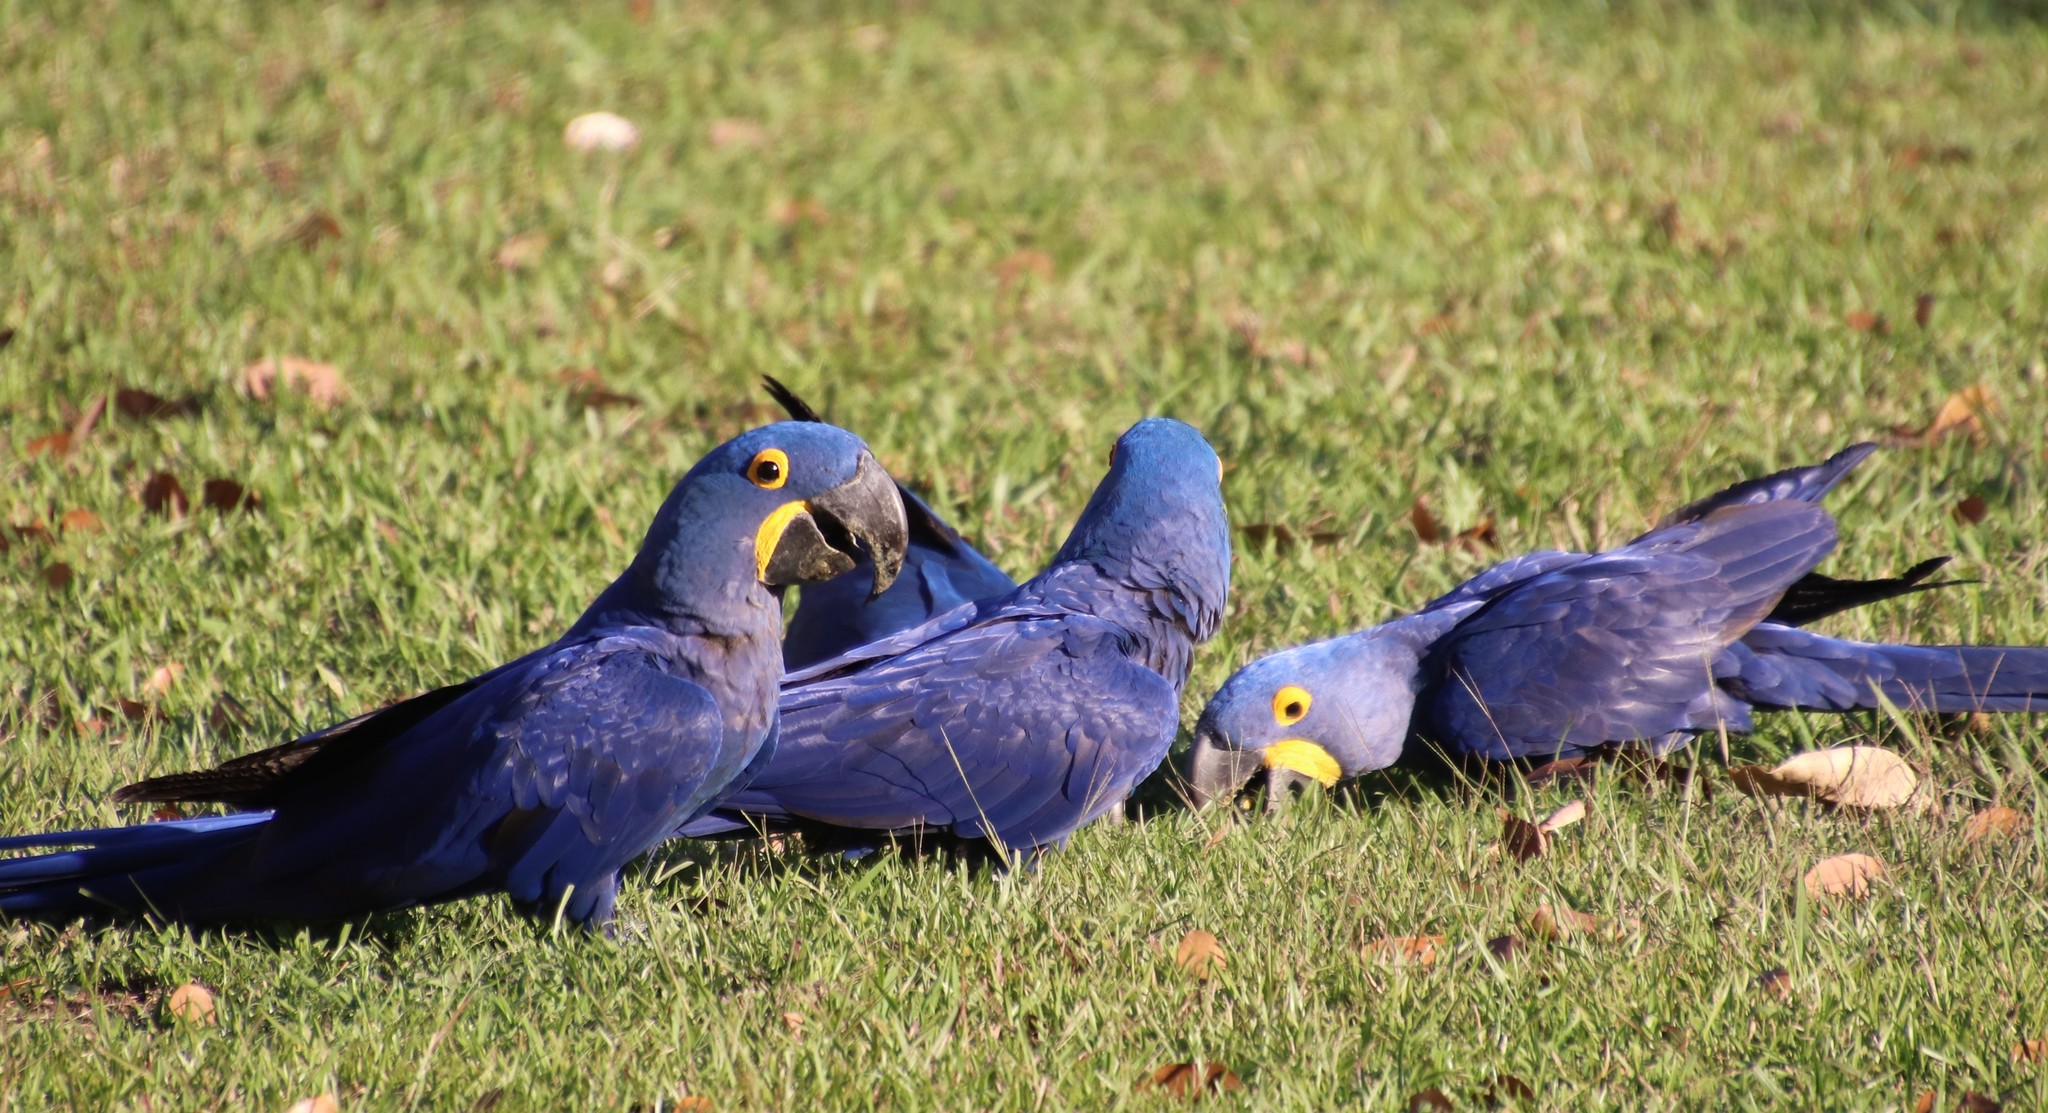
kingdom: Animalia
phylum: Chordata
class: Aves
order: Psittaciformes
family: Psittacidae
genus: Anodorhynchus
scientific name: Anodorhynchus hyacinthinus
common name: Hyacinth macaw
